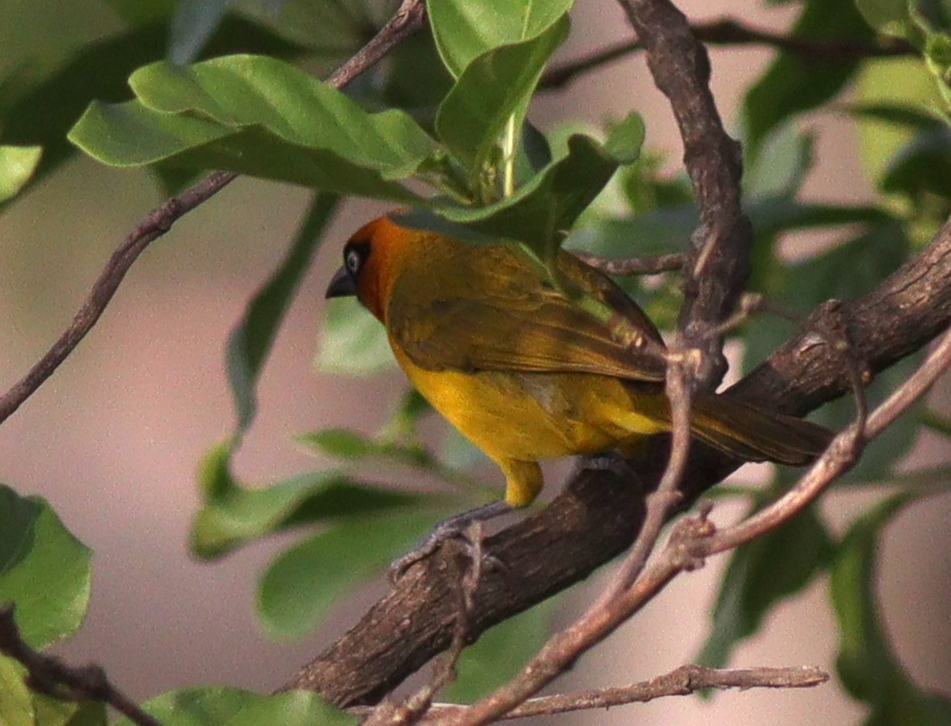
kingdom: Animalia
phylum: Chordata
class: Aves
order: Passeriformes
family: Ploceidae
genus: Ploceus
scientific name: Ploceus brachypterus
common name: Olive-naped weaver
